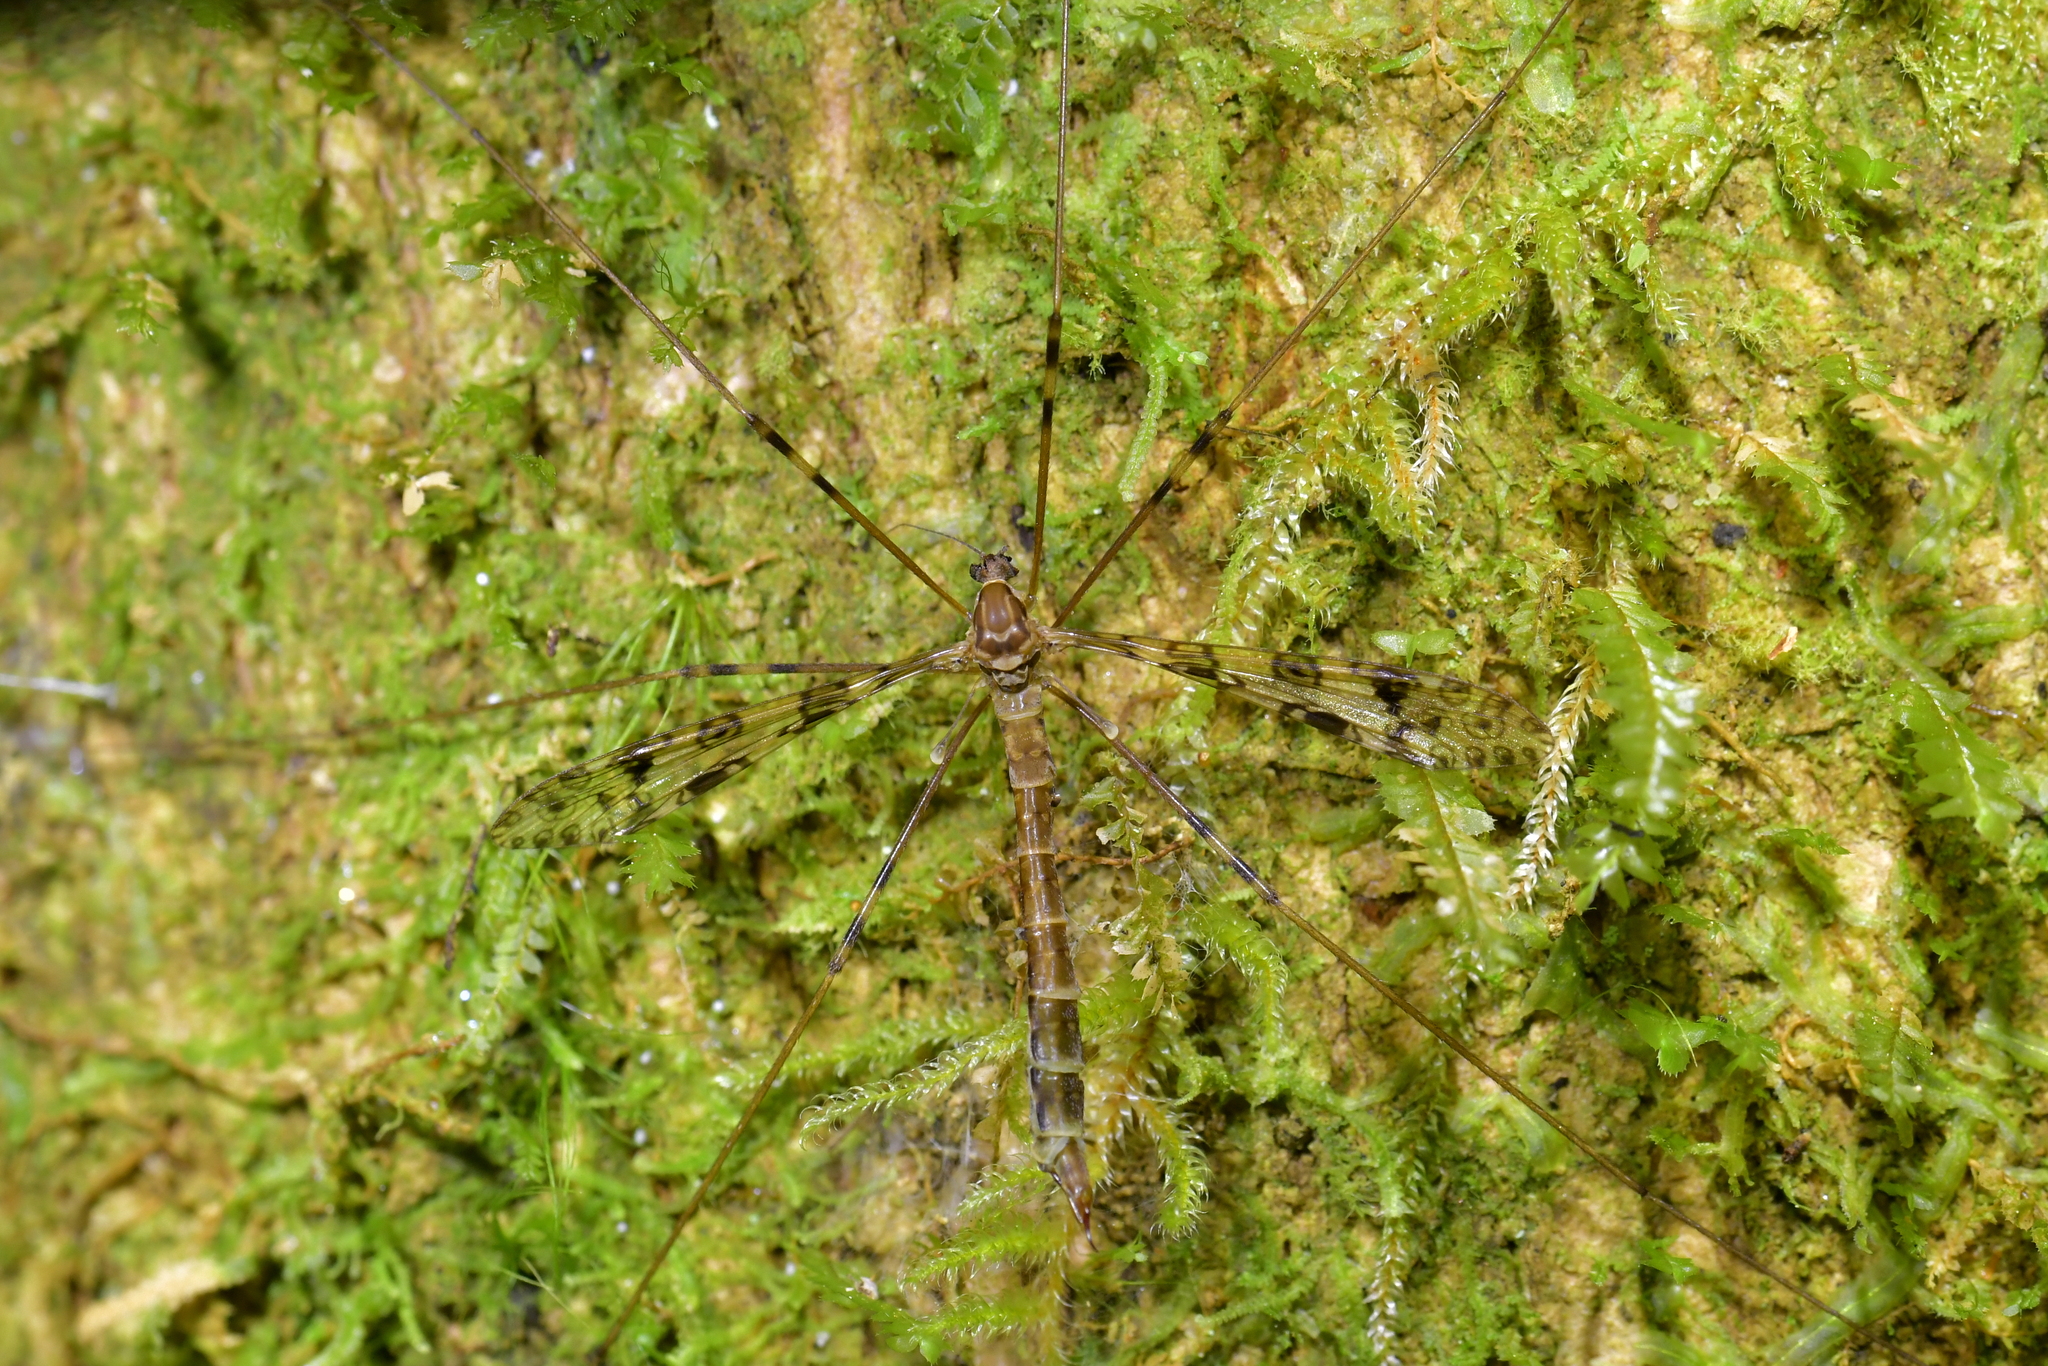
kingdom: Animalia
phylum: Arthropoda
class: Insecta
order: Diptera
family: Limoniidae
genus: Austrolimnophila
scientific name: Austrolimnophila argus
